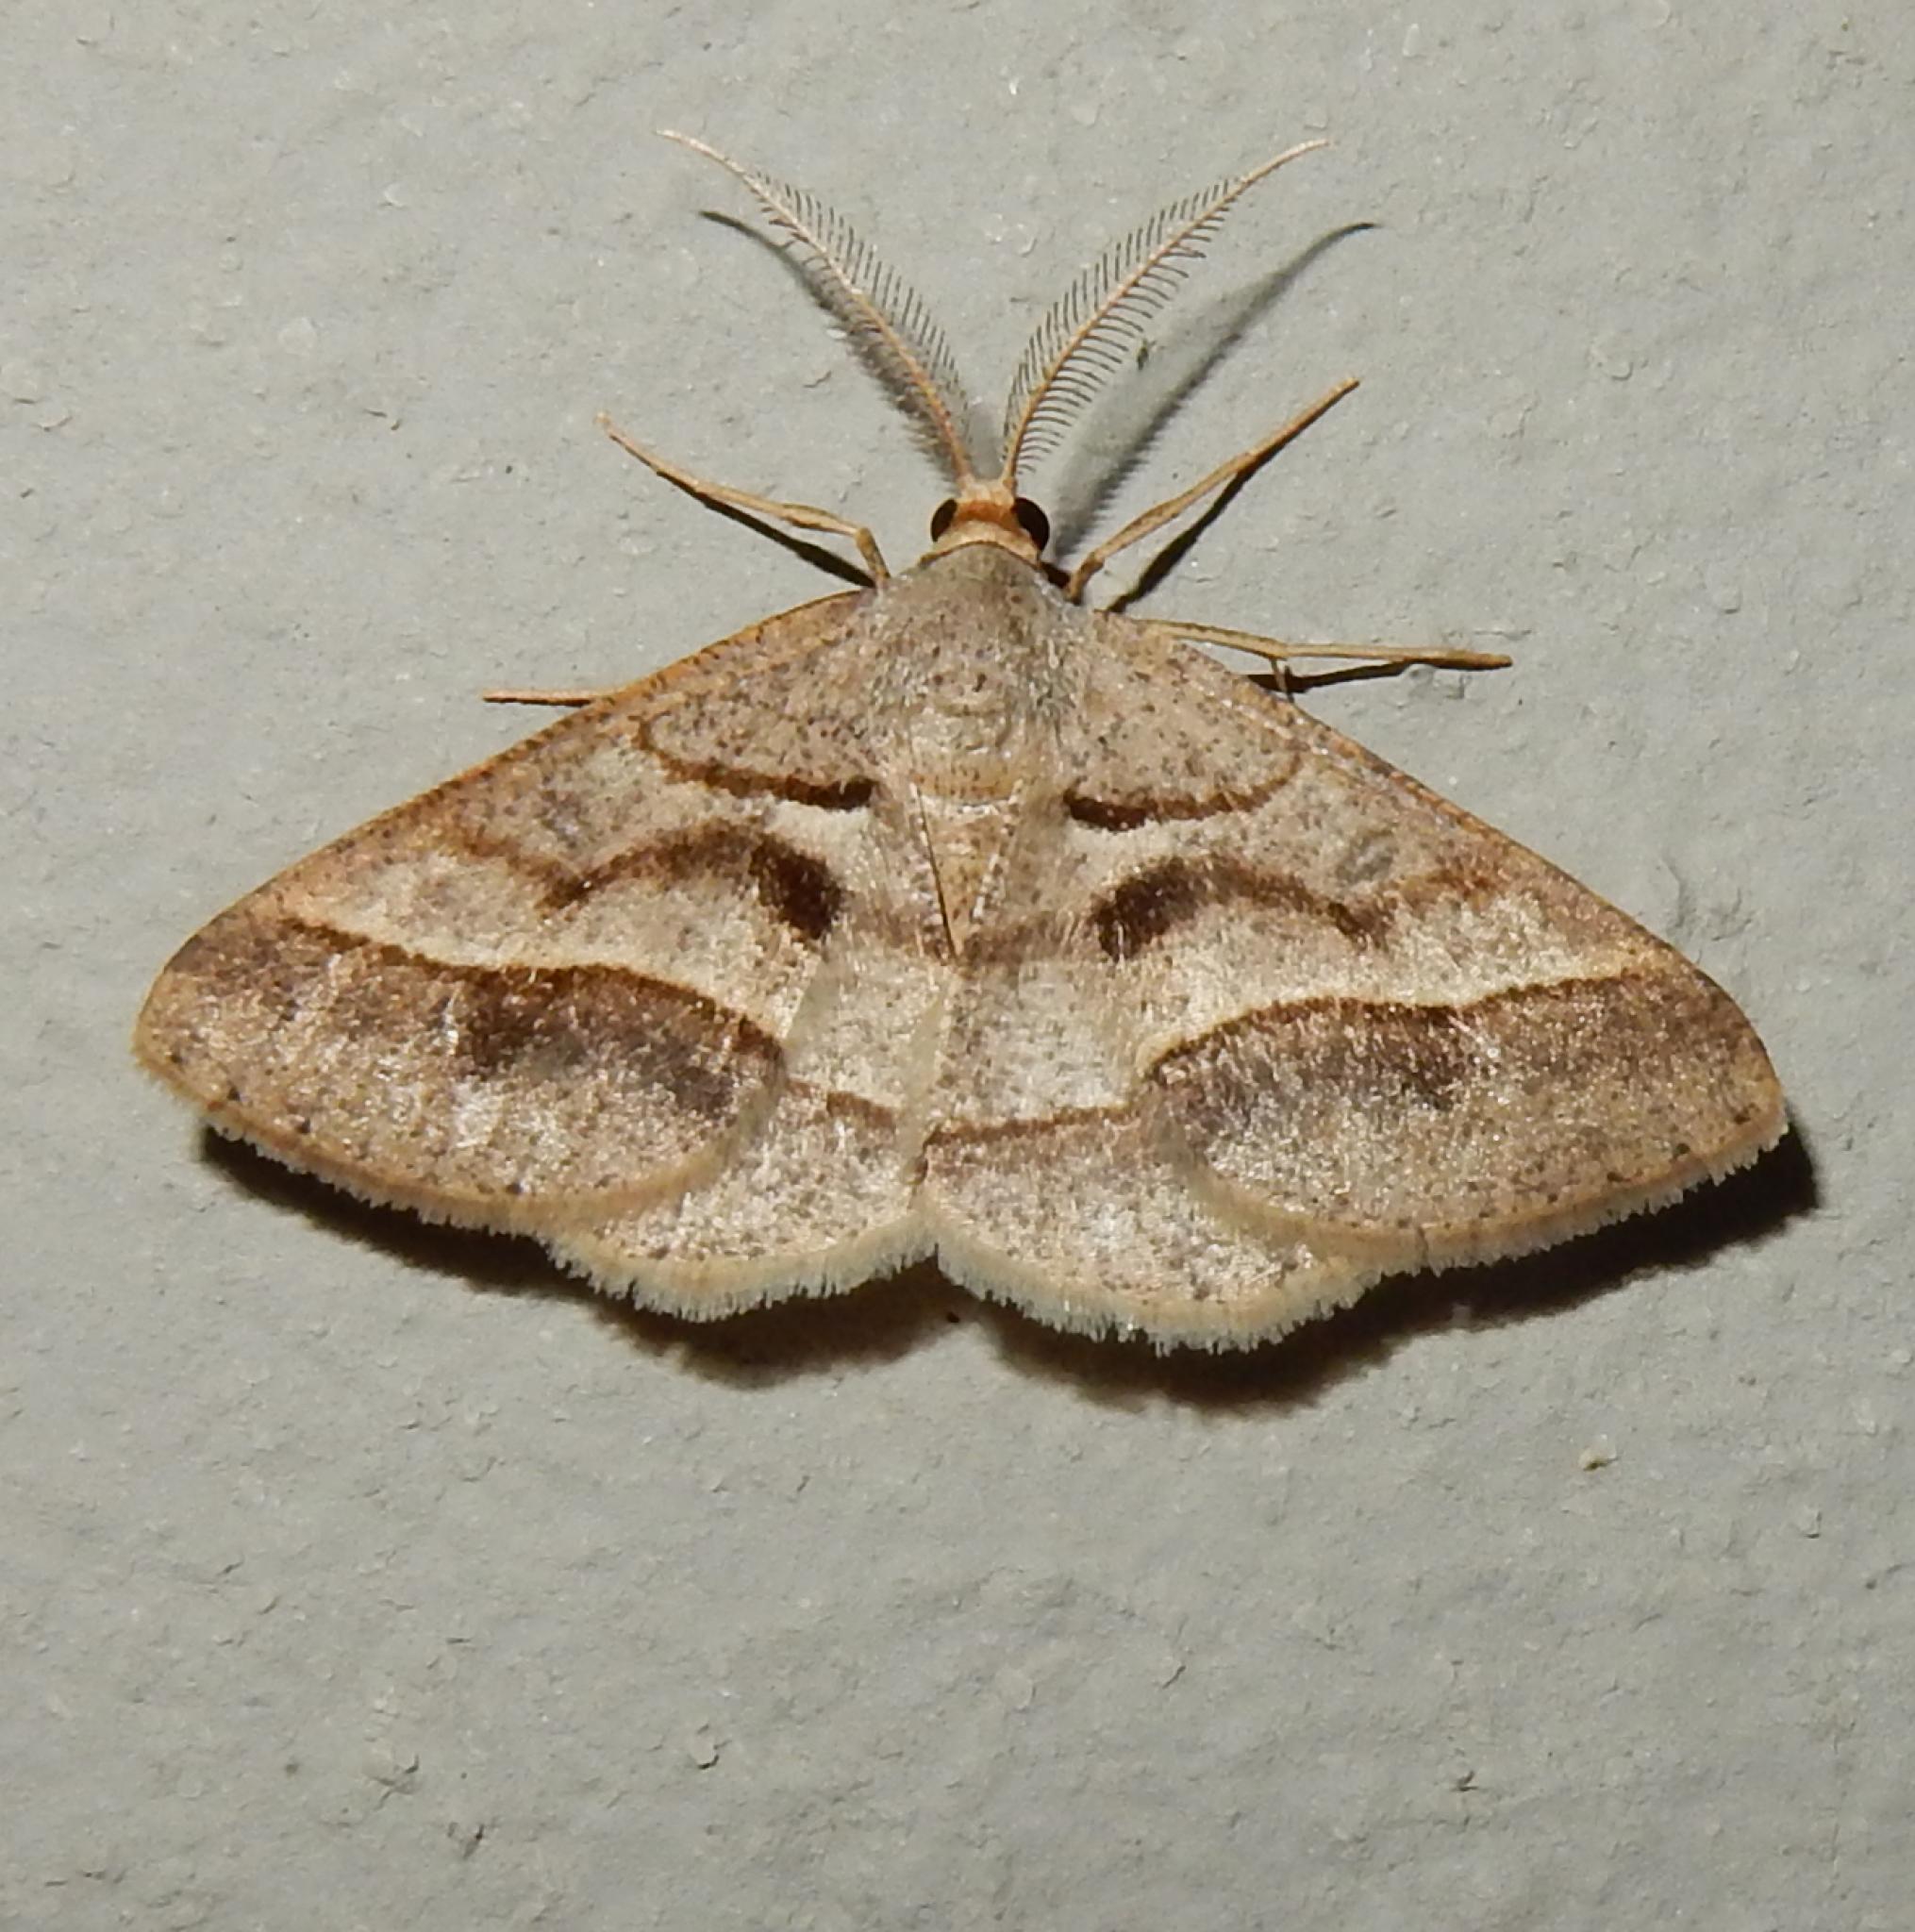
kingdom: Animalia
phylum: Arthropoda
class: Insecta
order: Lepidoptera
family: Geometridae
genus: Isturgia
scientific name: Isturgia spissata
